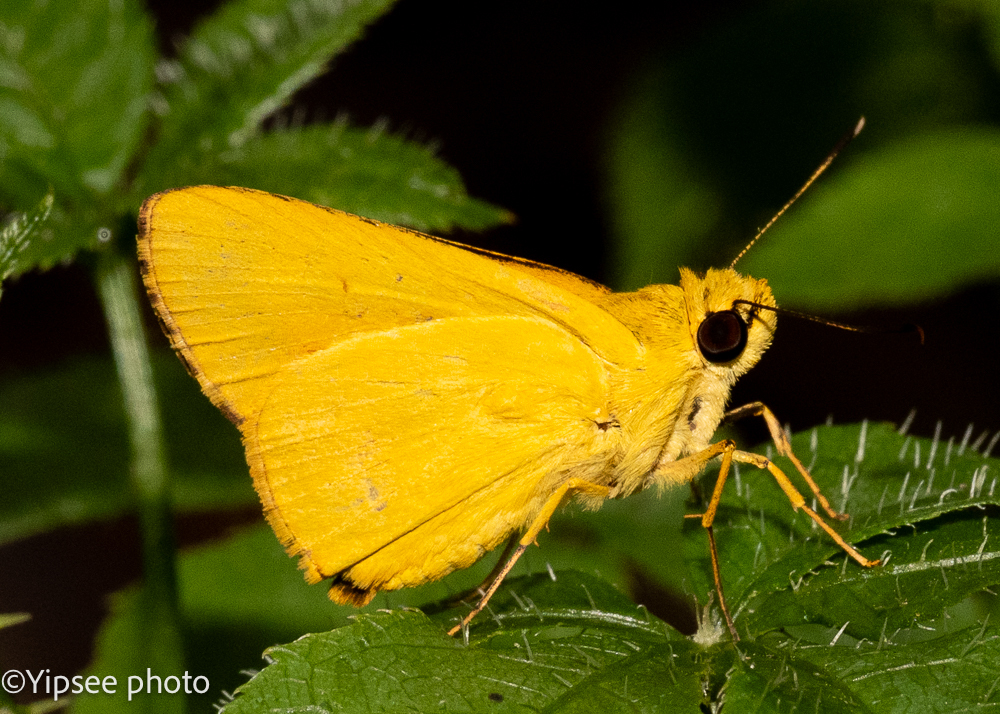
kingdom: Animalia
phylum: Arthropoda
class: Insecta
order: Lepidoptera
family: Hesperiidae
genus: Cupitha
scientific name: Cupitha purreea
